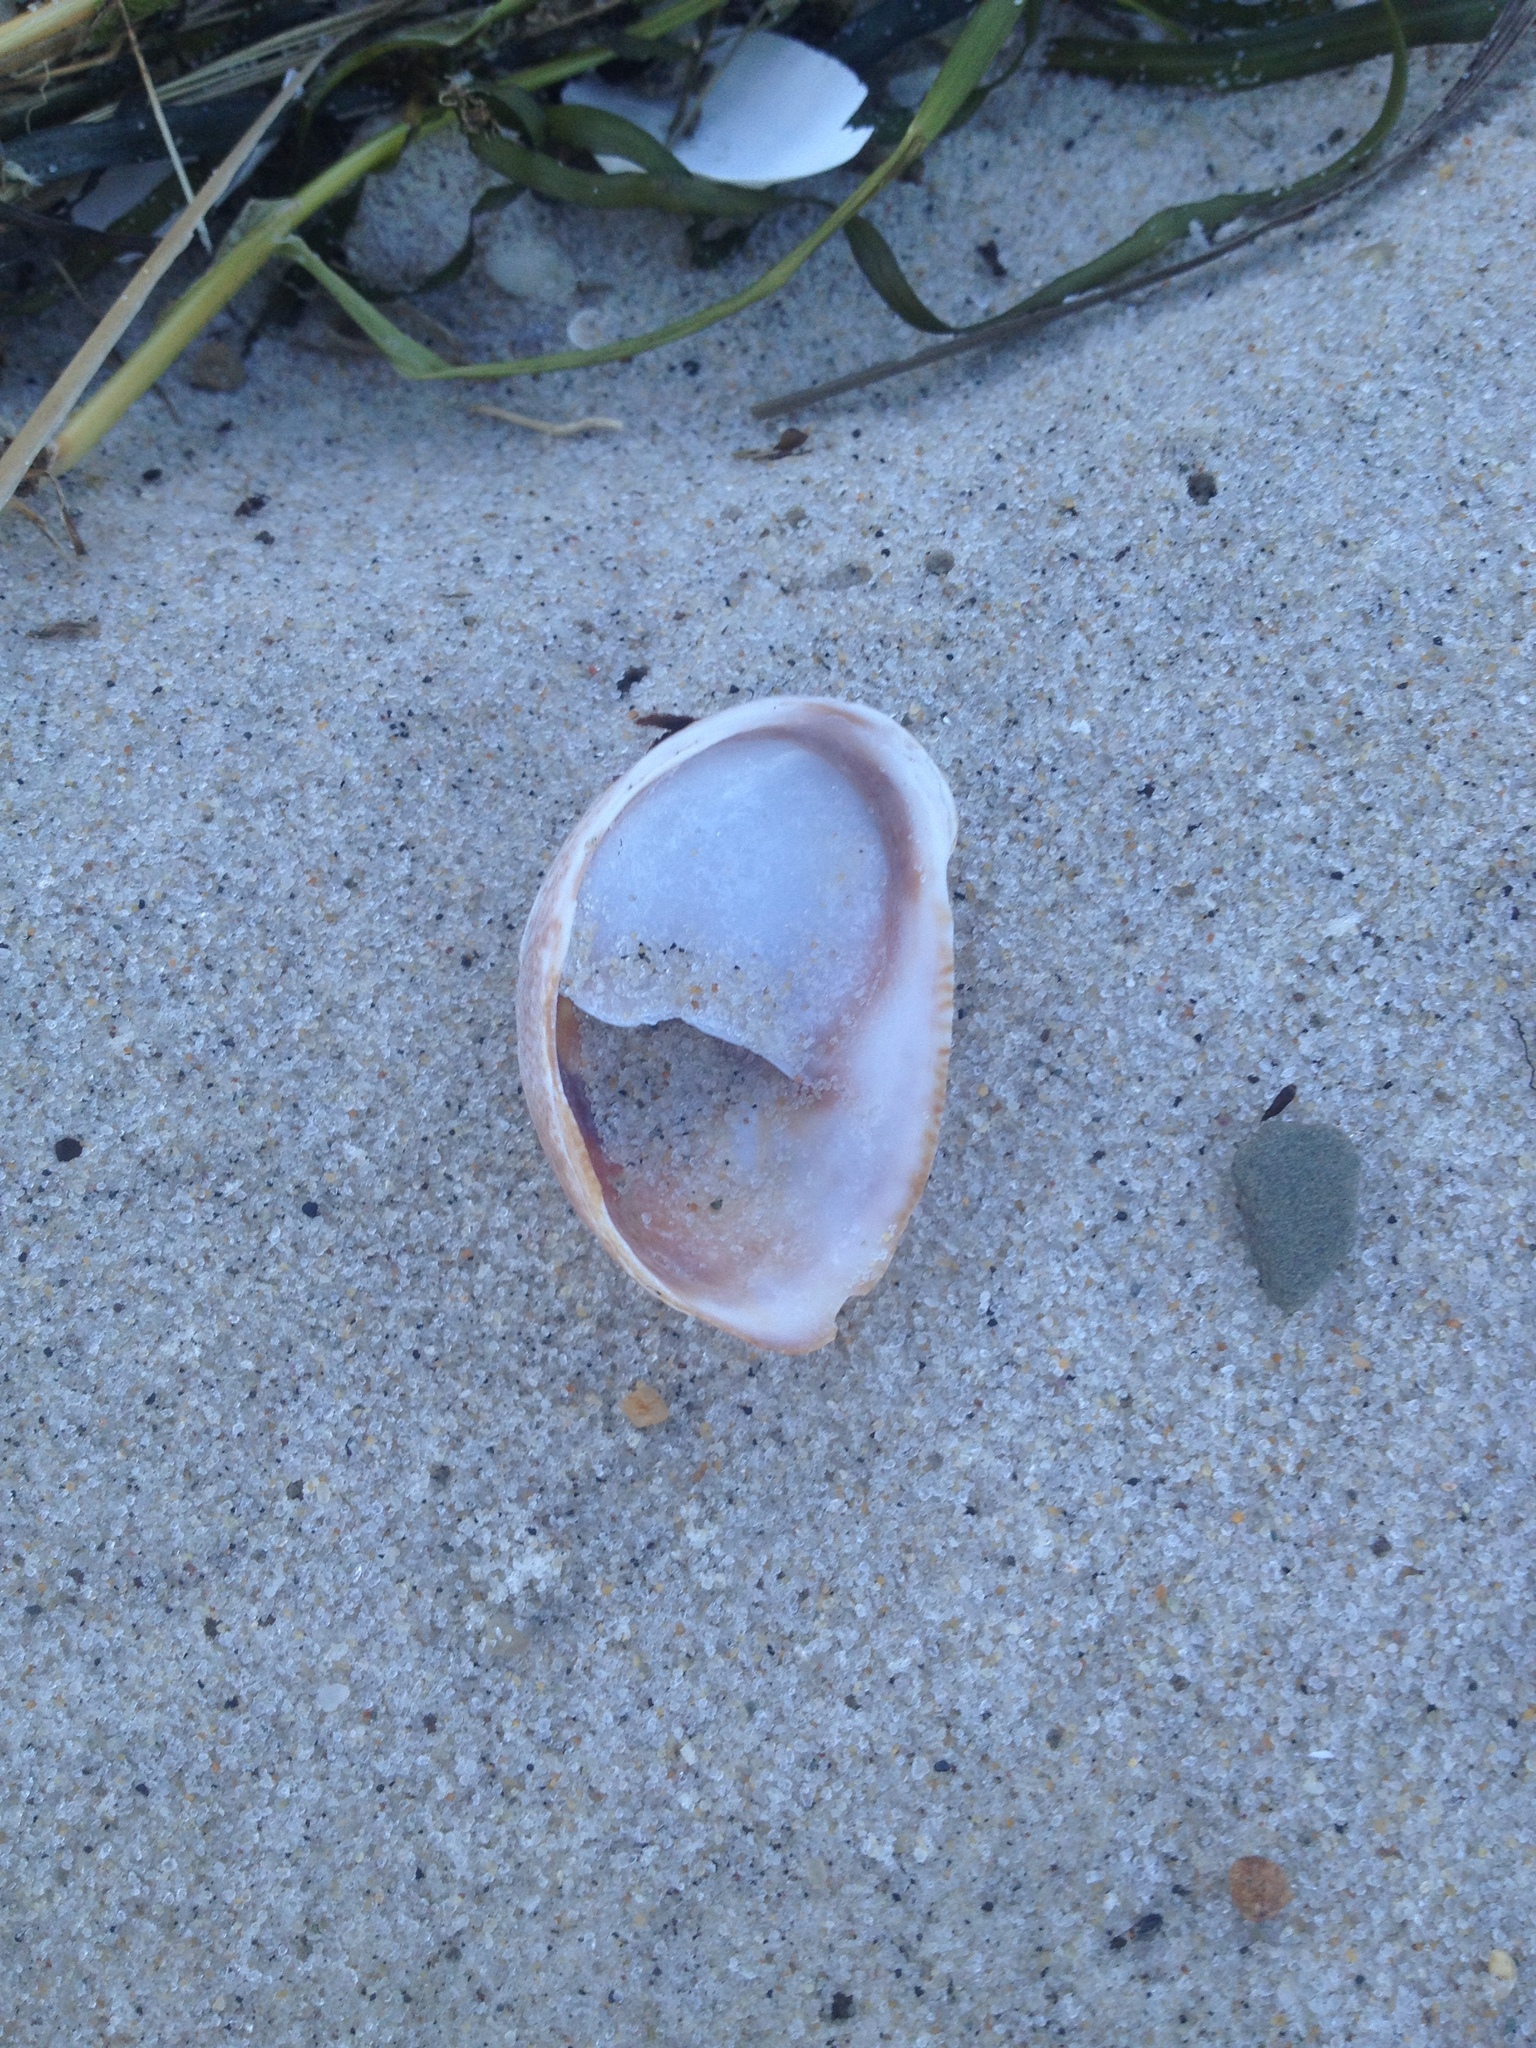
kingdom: Animalia
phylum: Mollusca
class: Gastropoda
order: Littorinimorpha
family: Calyptraeidae
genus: Crepidula
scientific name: Crepidula fornicata
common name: Slipper limpet
